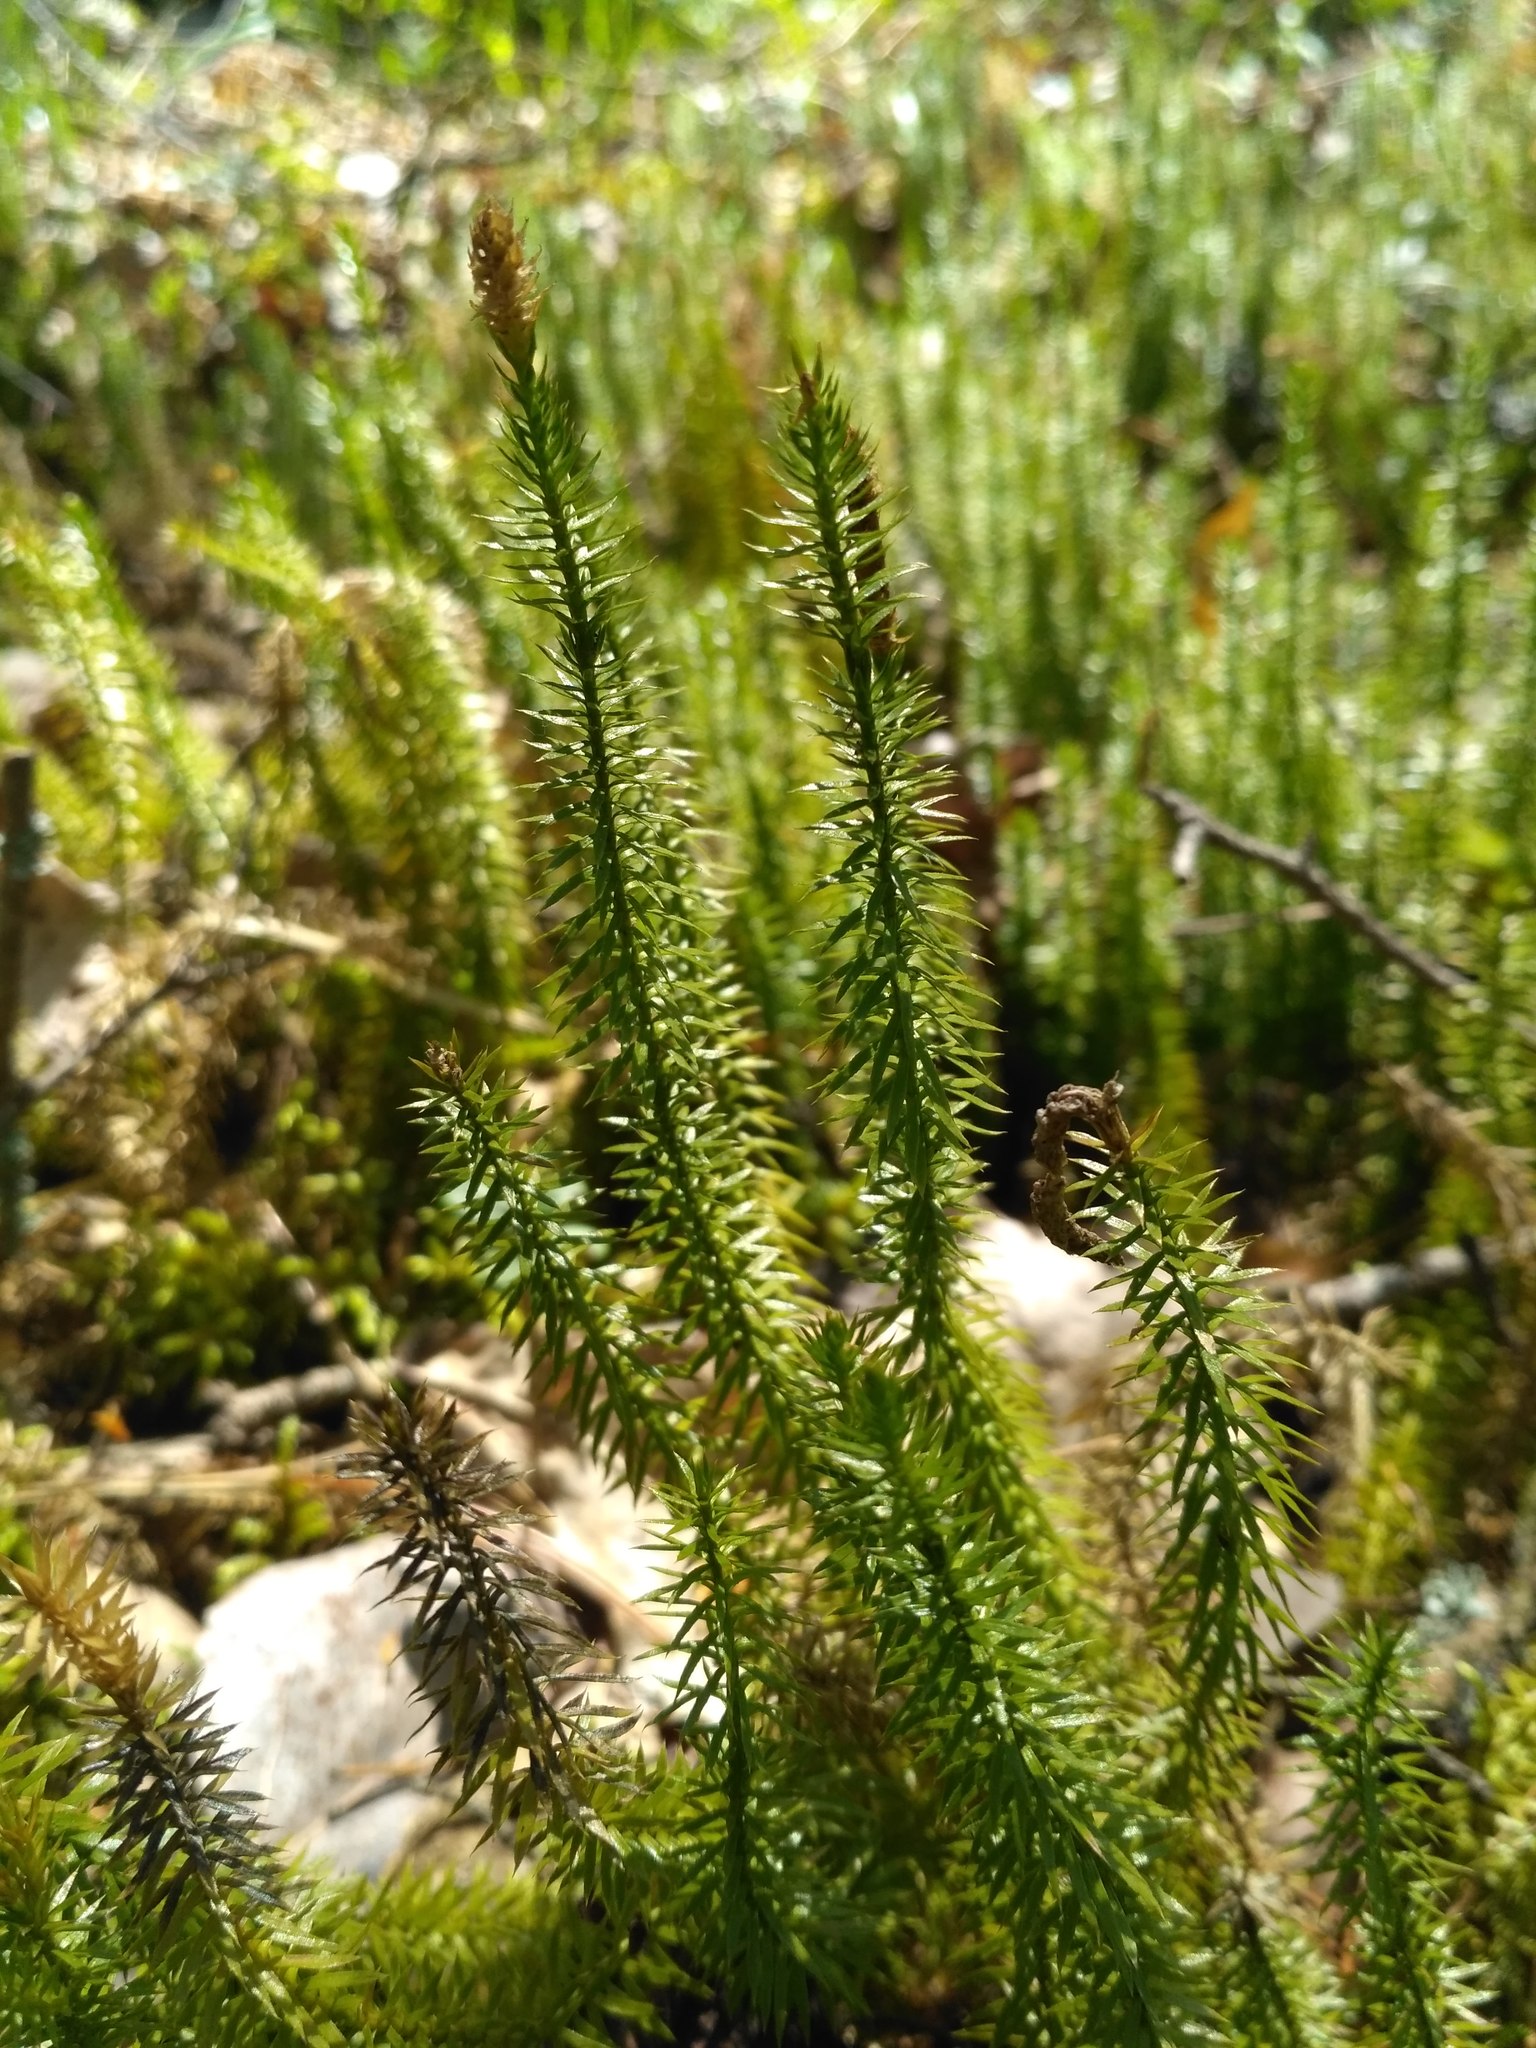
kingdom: Plantae
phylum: Tracheophyta
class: Lycopodiopsida
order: Lycopodiales
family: Lycopodiaceae
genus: Spinulum
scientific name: Spinulum annotinum
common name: Interrupted club-moss
